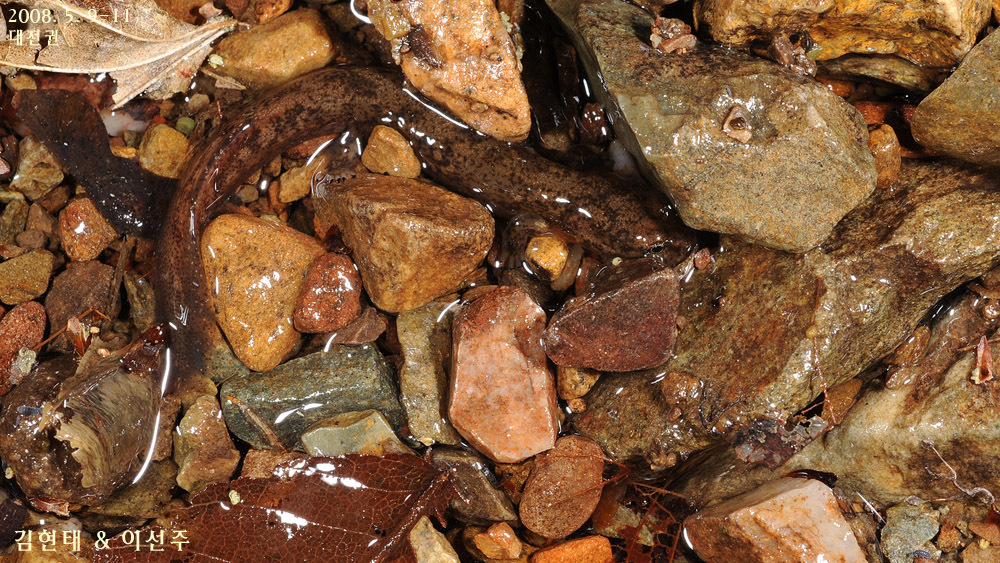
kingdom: Animalia
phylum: Chordata
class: Amphibia
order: Caudata
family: Hynobiidae
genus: Onychodactylus
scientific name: Onychodactylus koreanus
